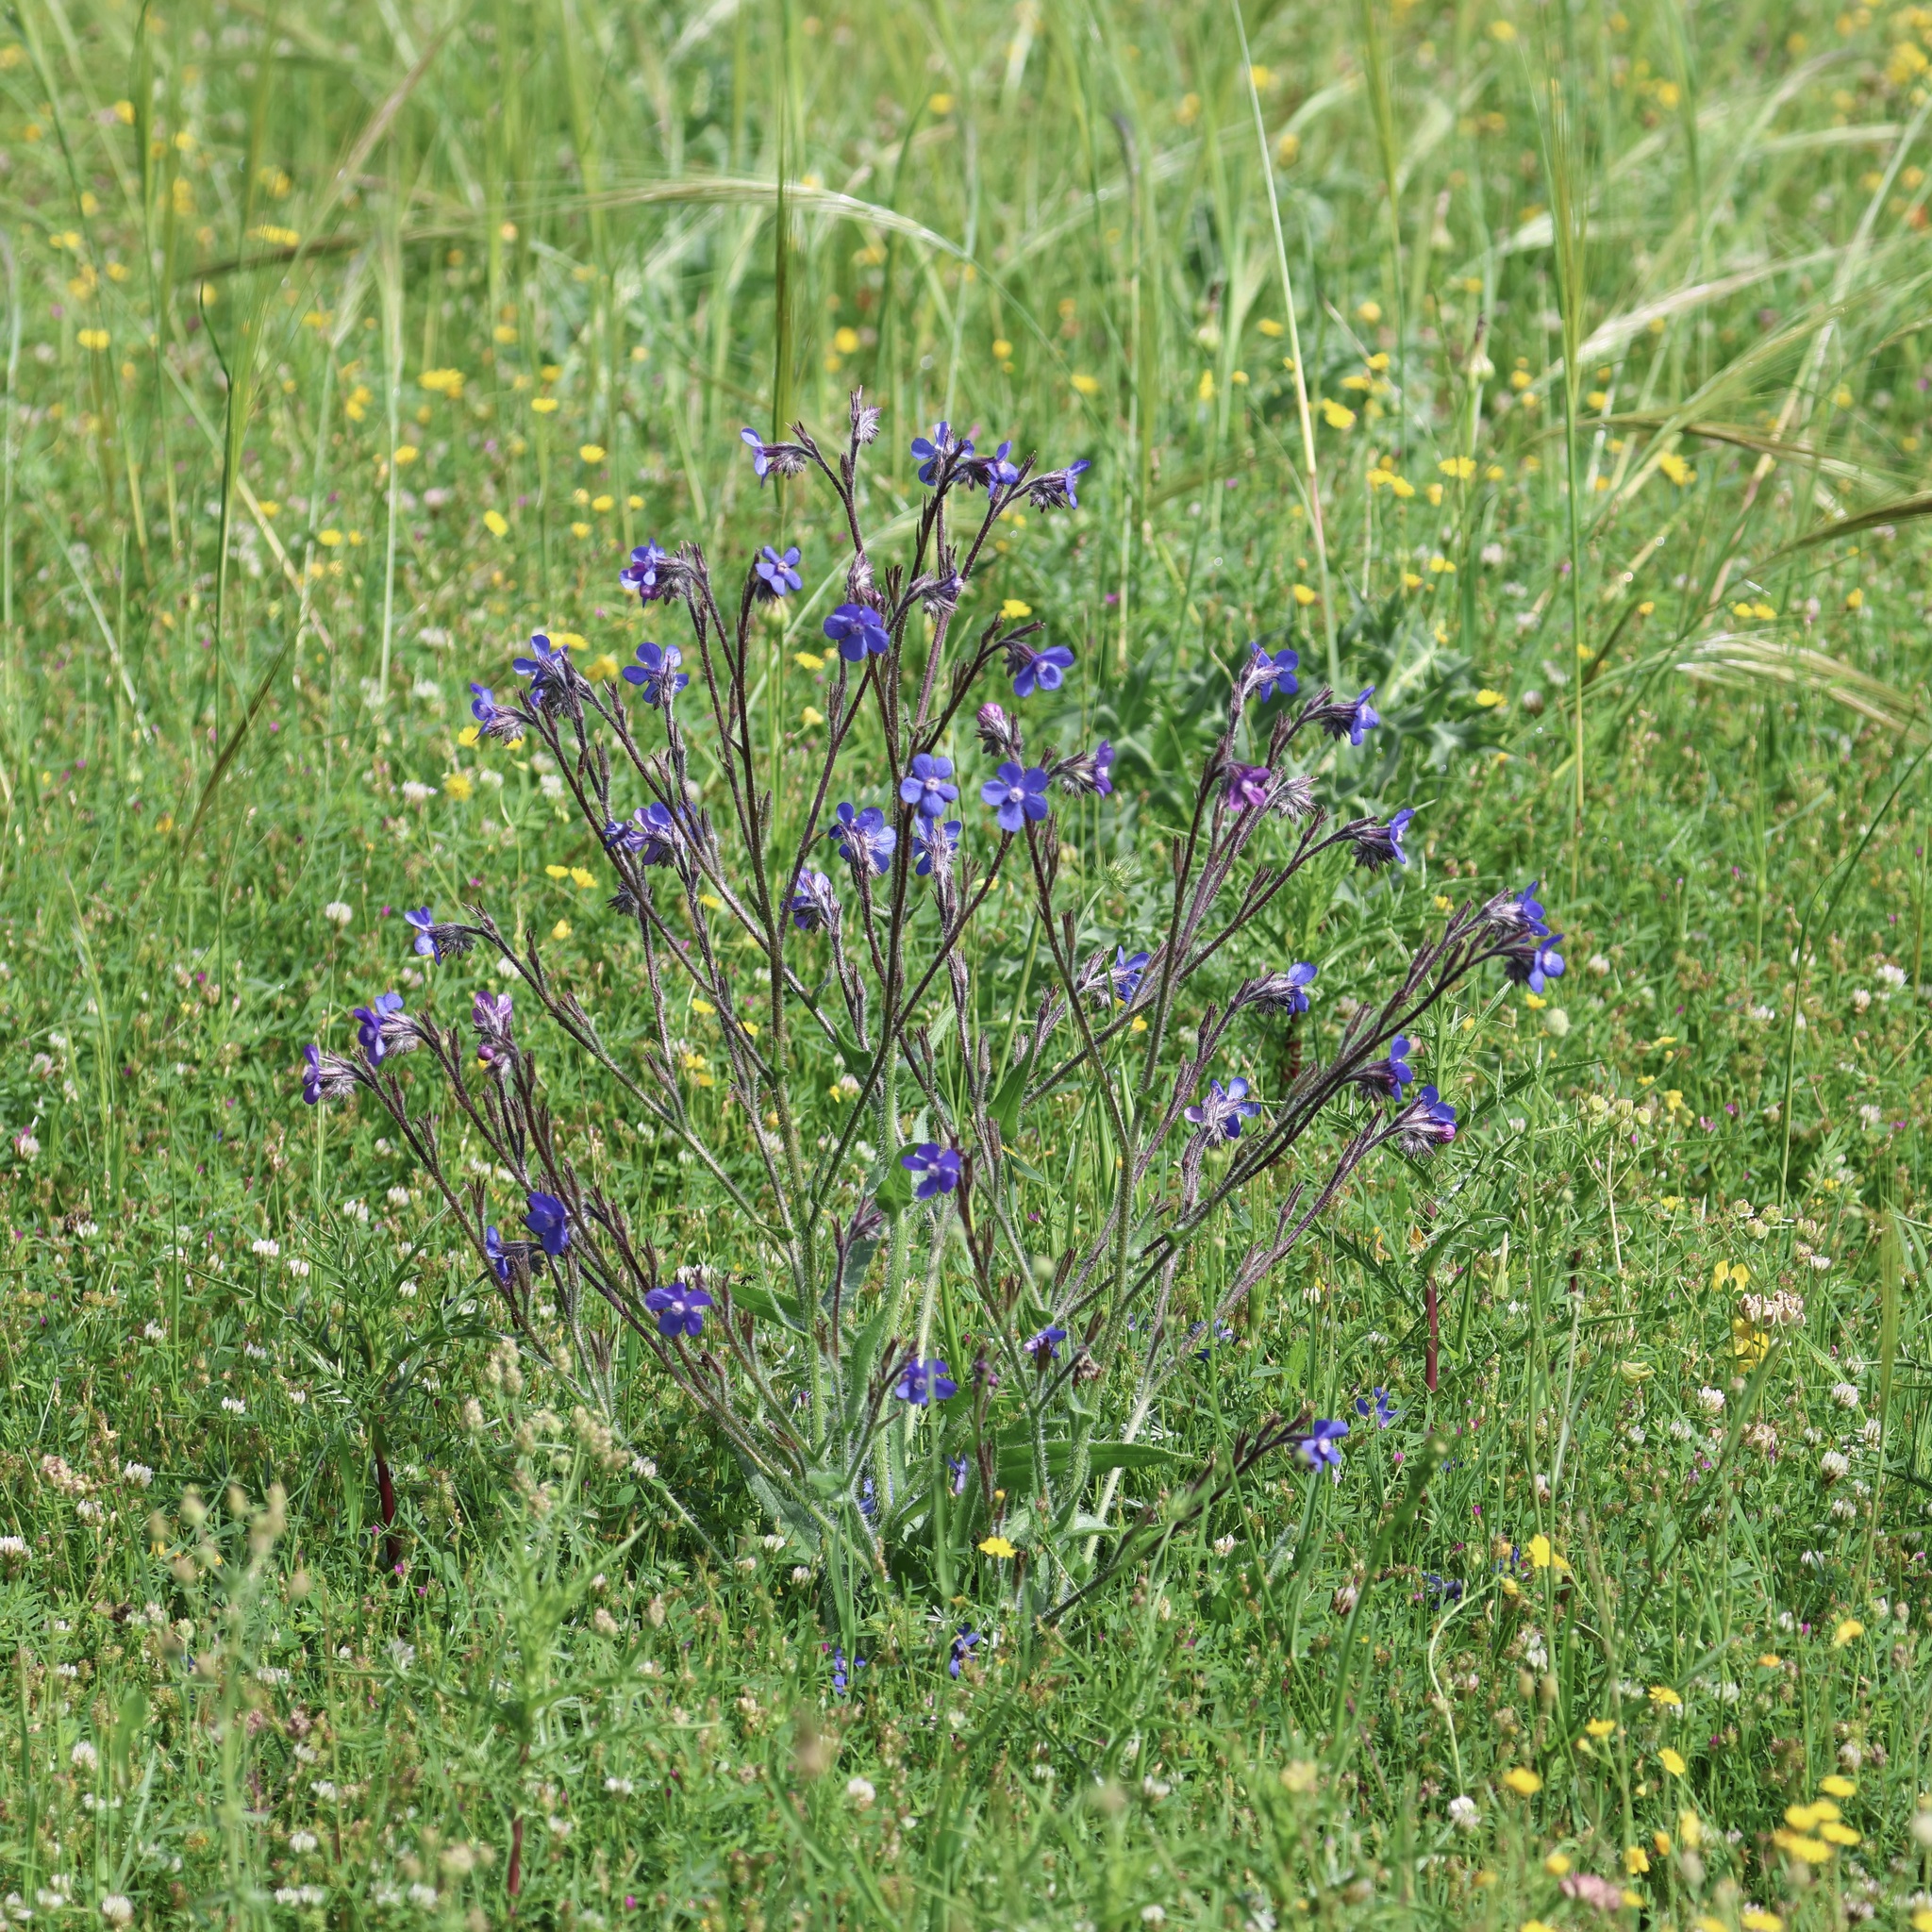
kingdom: Plantae
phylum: Tracheophyta
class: Magnoliopsida
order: Boraginales
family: Boraginaceae
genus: Anchusa
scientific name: Anchusa azurea
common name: Garden anchusa
